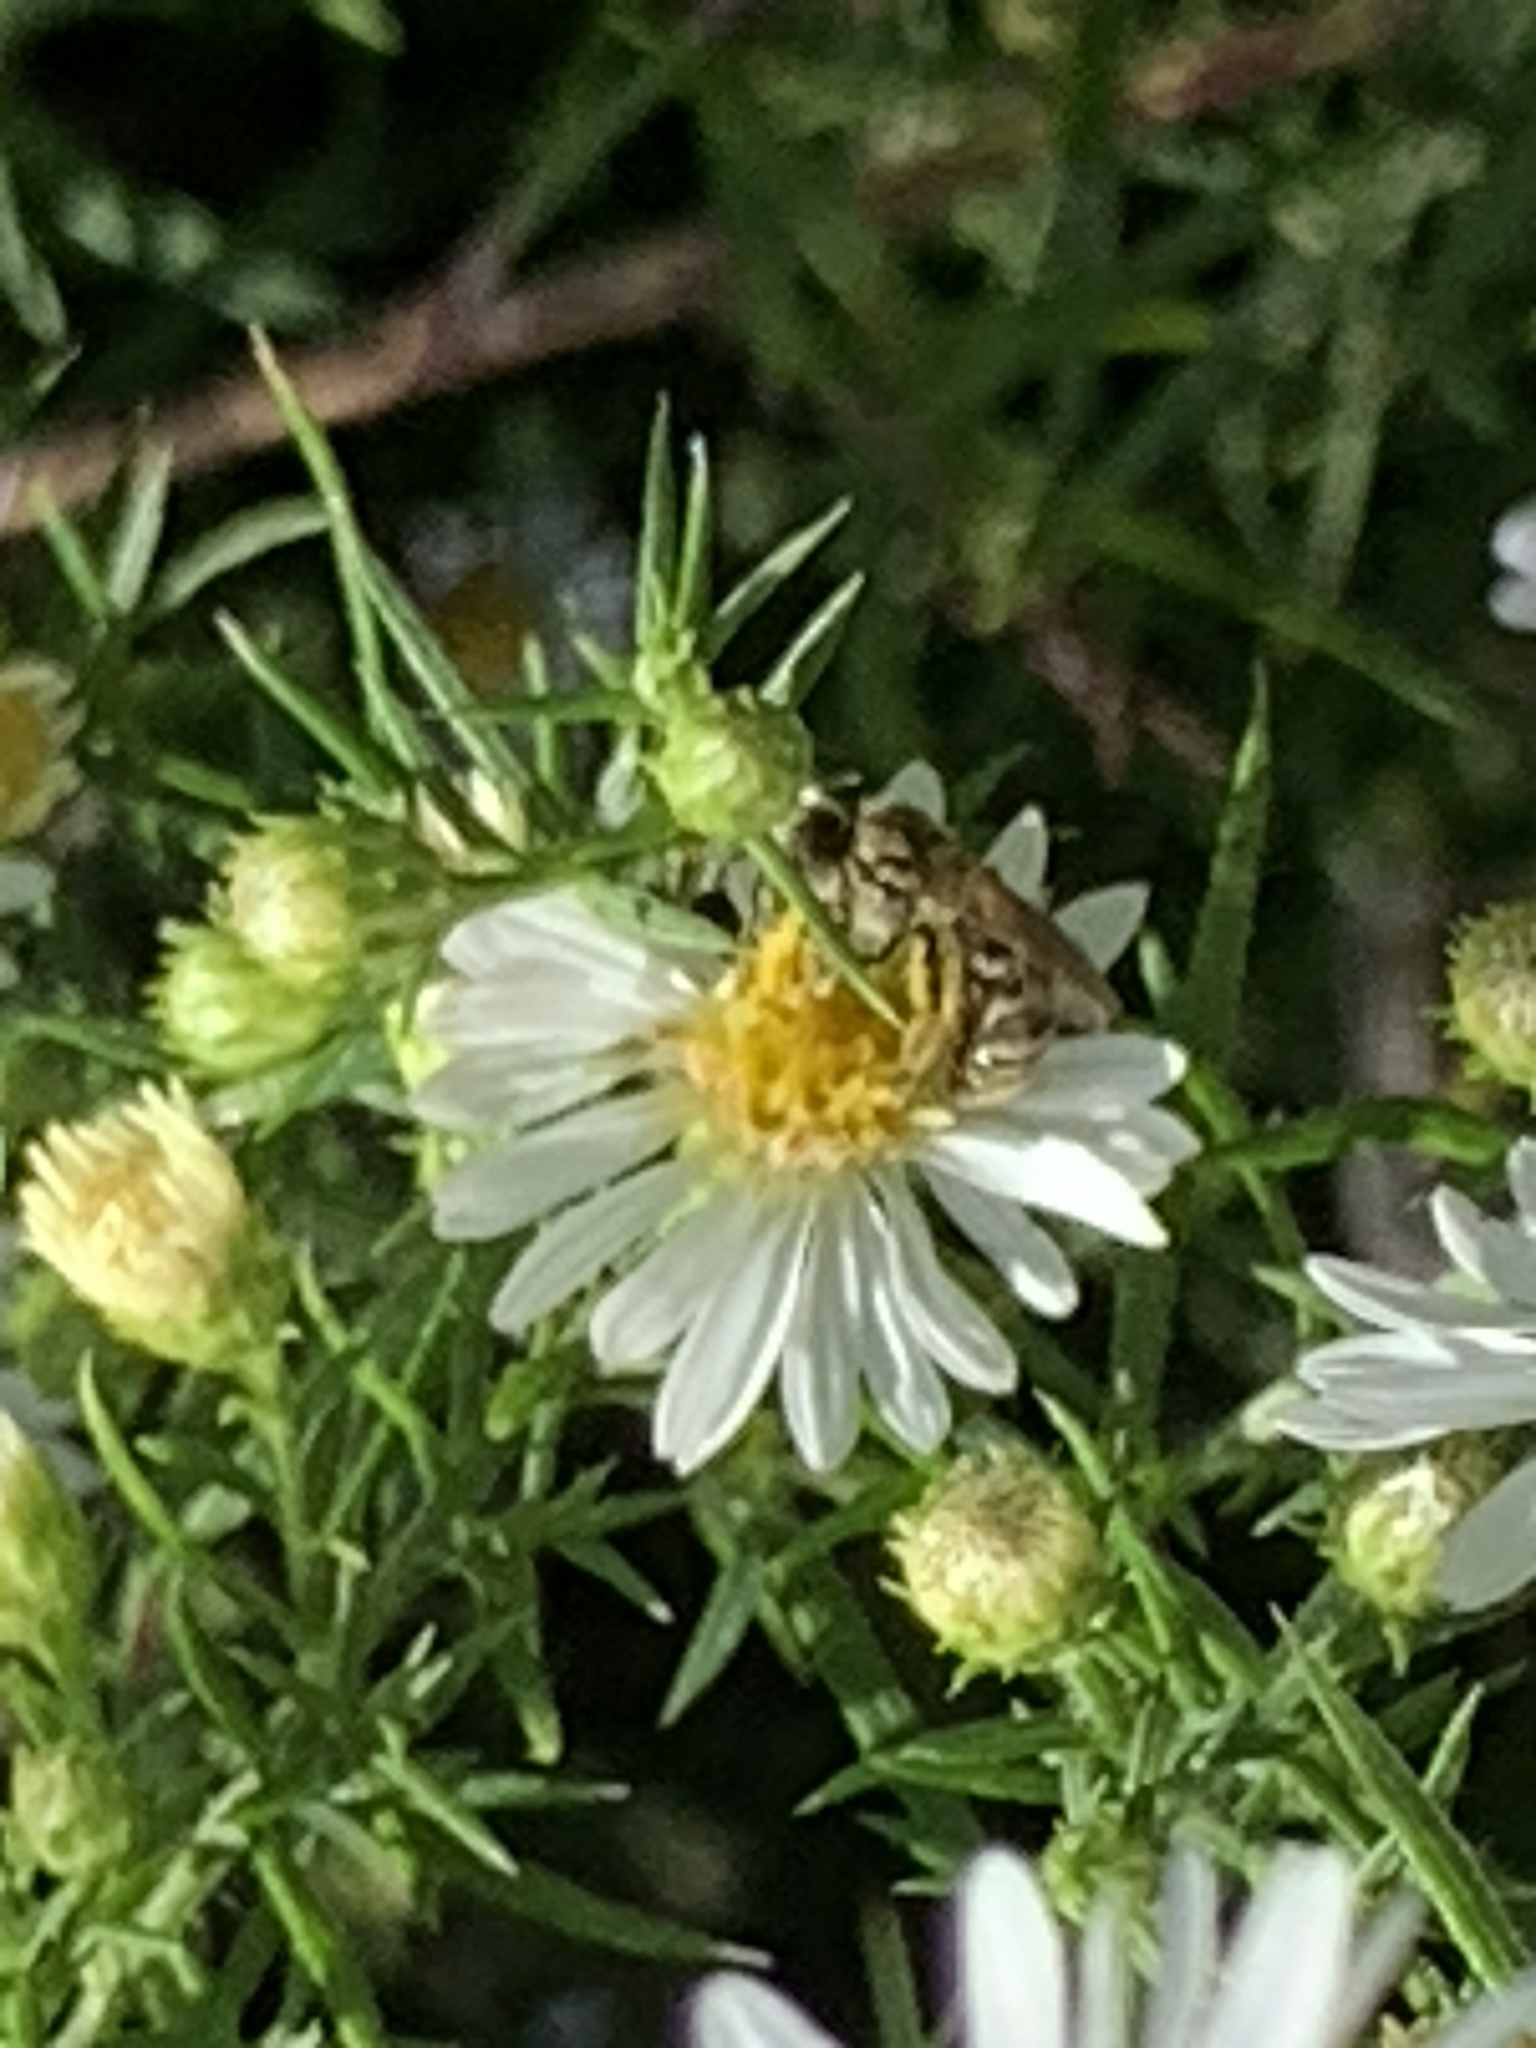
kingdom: Animalia
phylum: Arthropoda
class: Insecta
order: Hymenoptera
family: Halictidae
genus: Halictus
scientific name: Halictus confusus
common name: Southern bronze furrow bee
